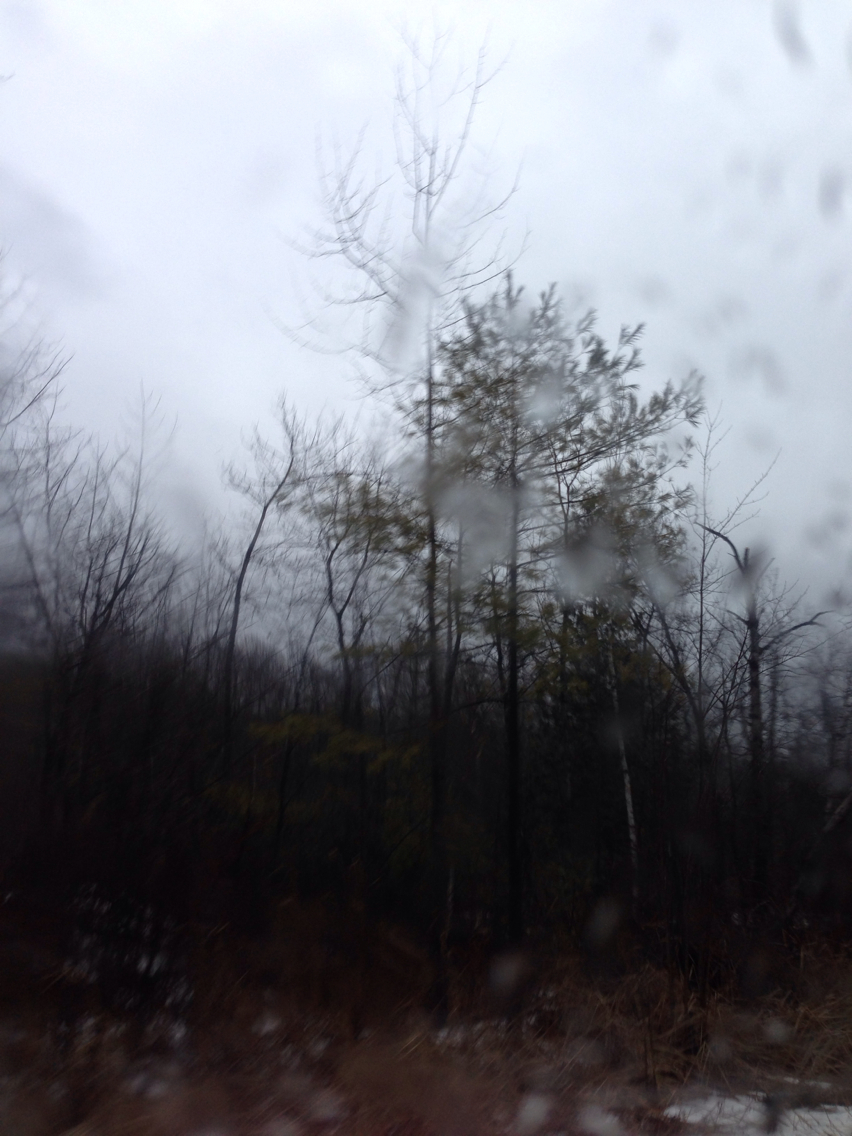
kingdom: Plantae
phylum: Tracheophyta
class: Pinopsida
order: Pinales
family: Pinaceae
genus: Pinus
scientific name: Pinus strobus
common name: Weymouth pine
